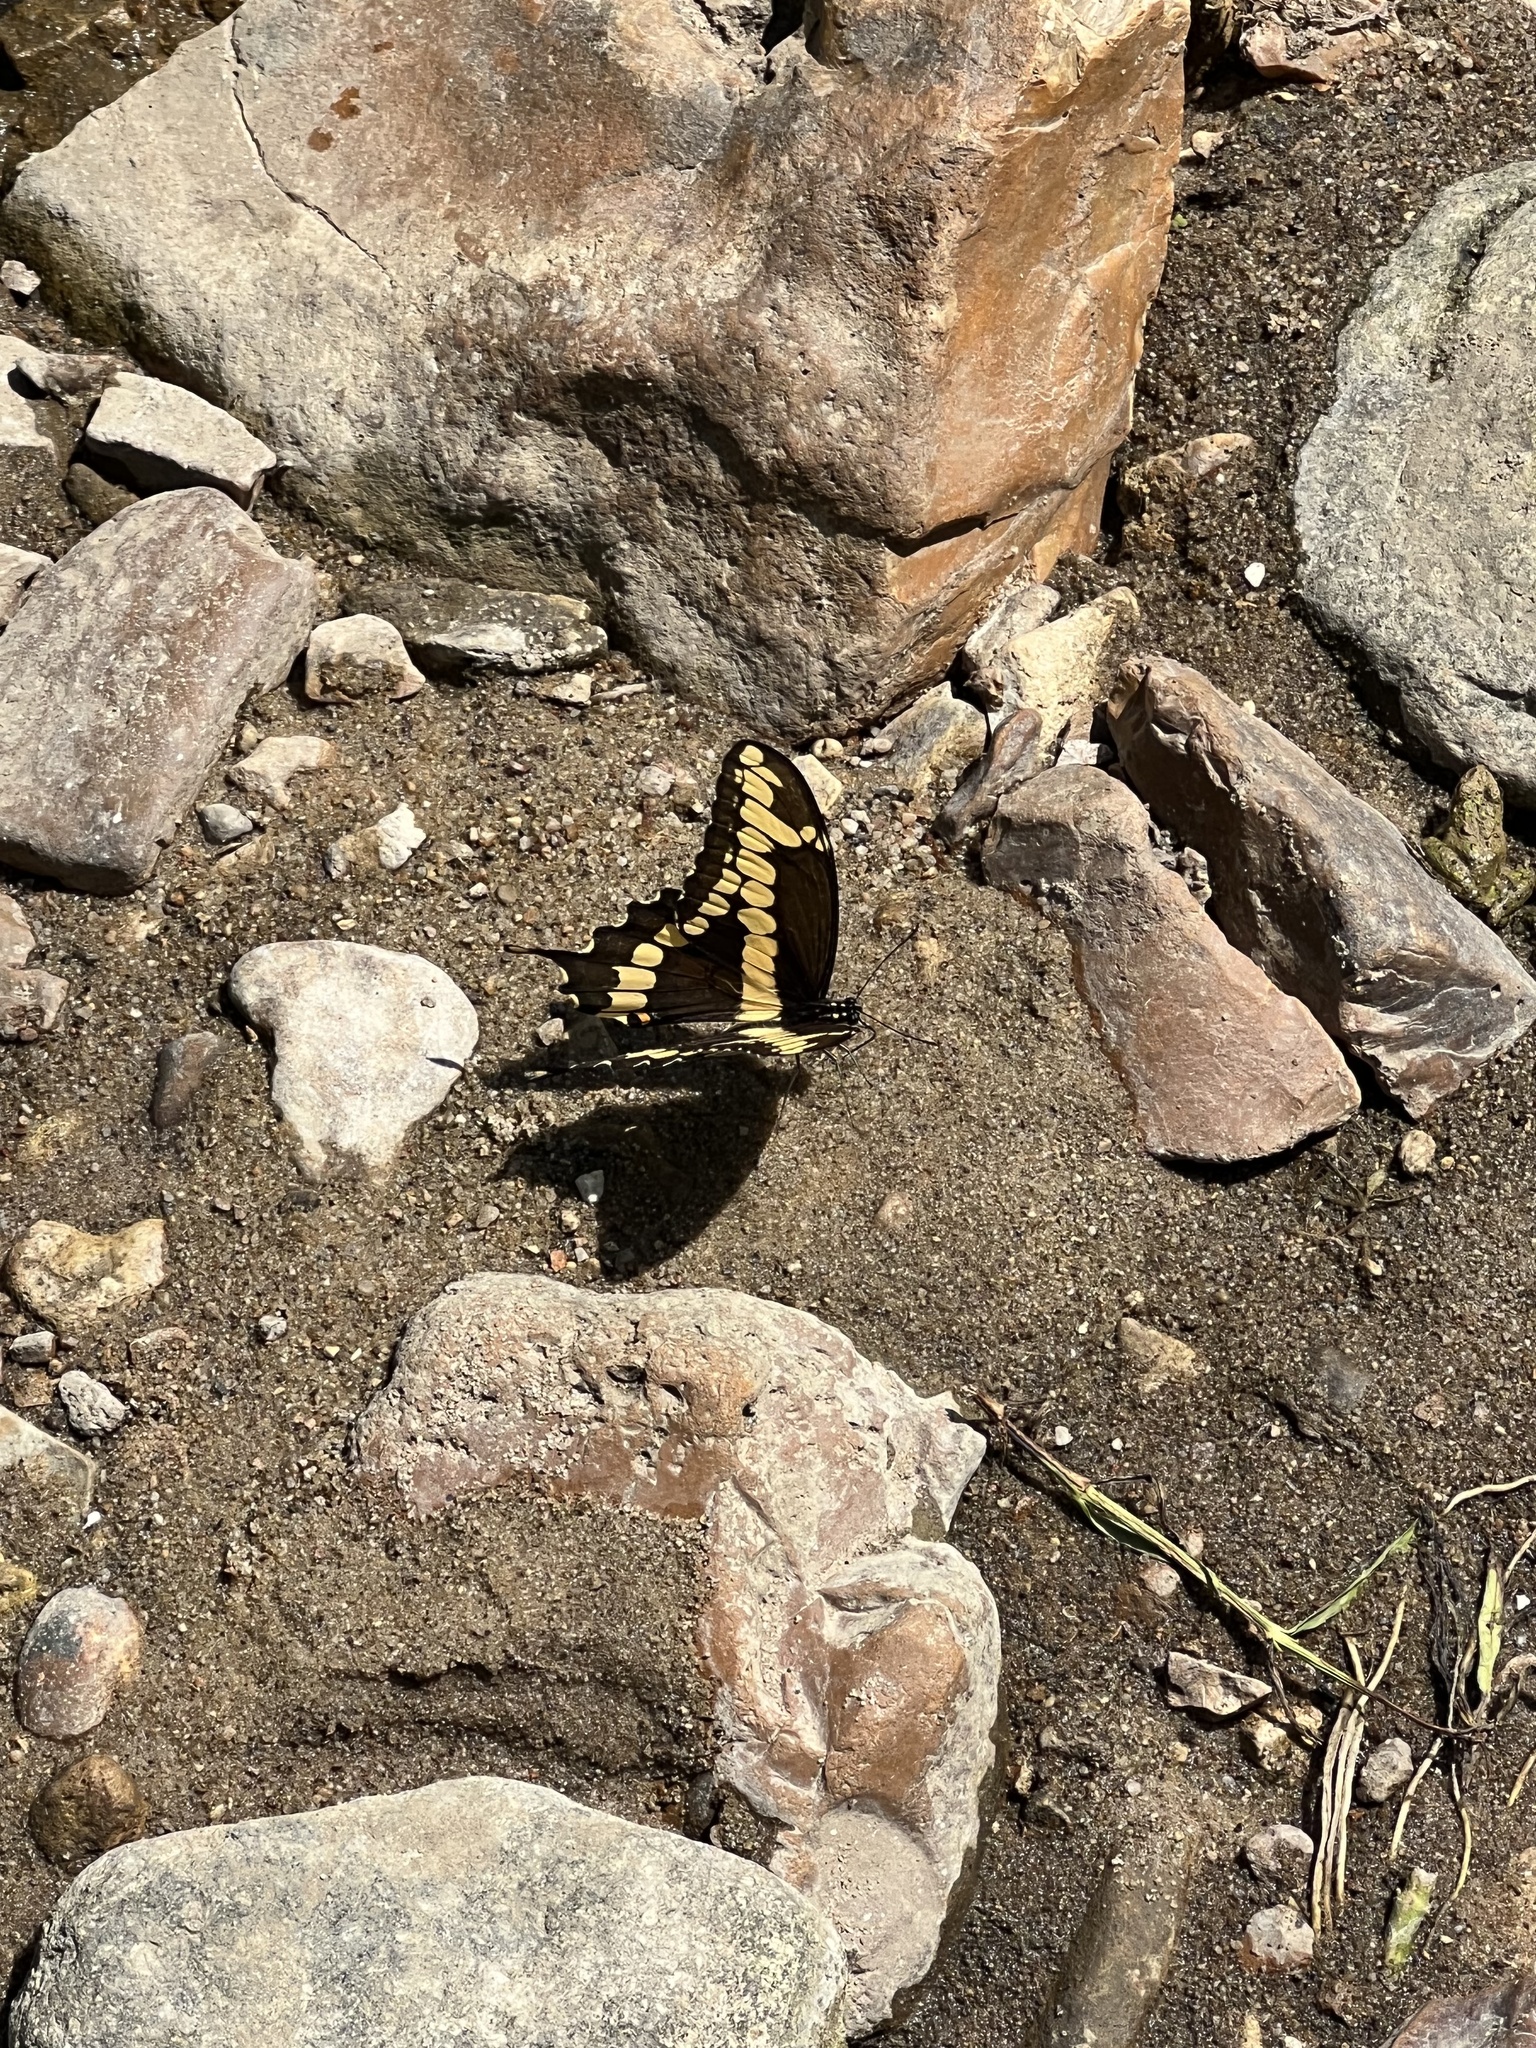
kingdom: Animalia
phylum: Arthropoda
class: Insecta
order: Lepidoptera
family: Papilionidae
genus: Papilio
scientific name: Papilio cresphontes
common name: Giant swallowtail
